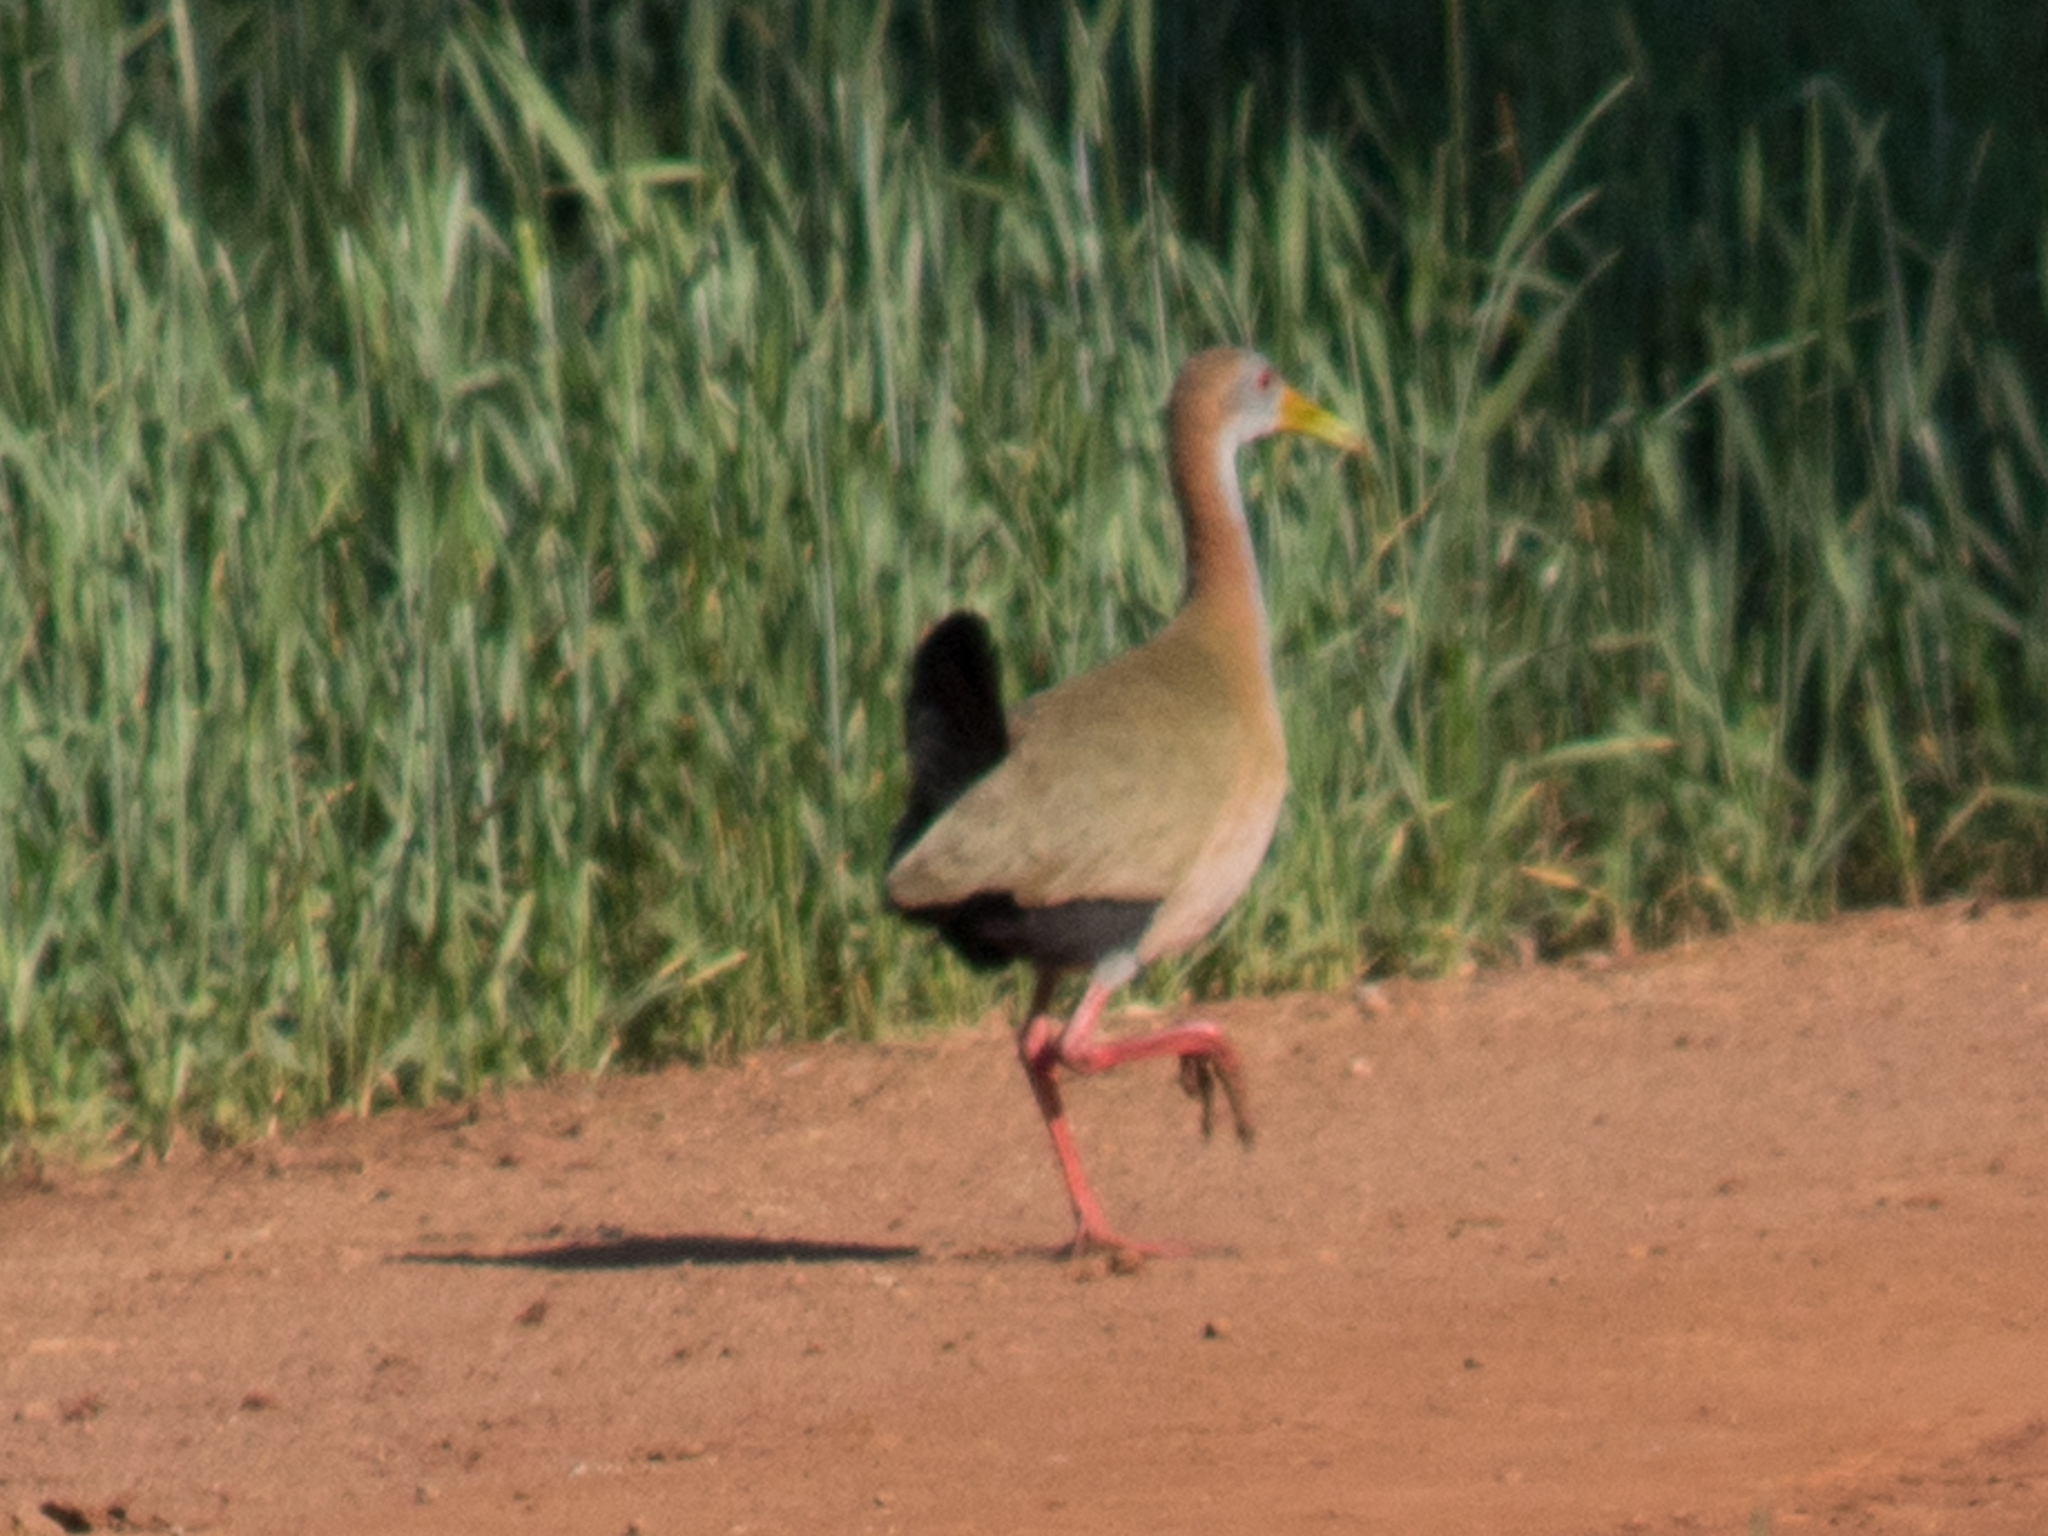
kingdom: Animalia
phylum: Chordata
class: Aves
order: Gruiformes
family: Rallidae
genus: Aramides
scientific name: Aramides ypecaha
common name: Giant wood rail
